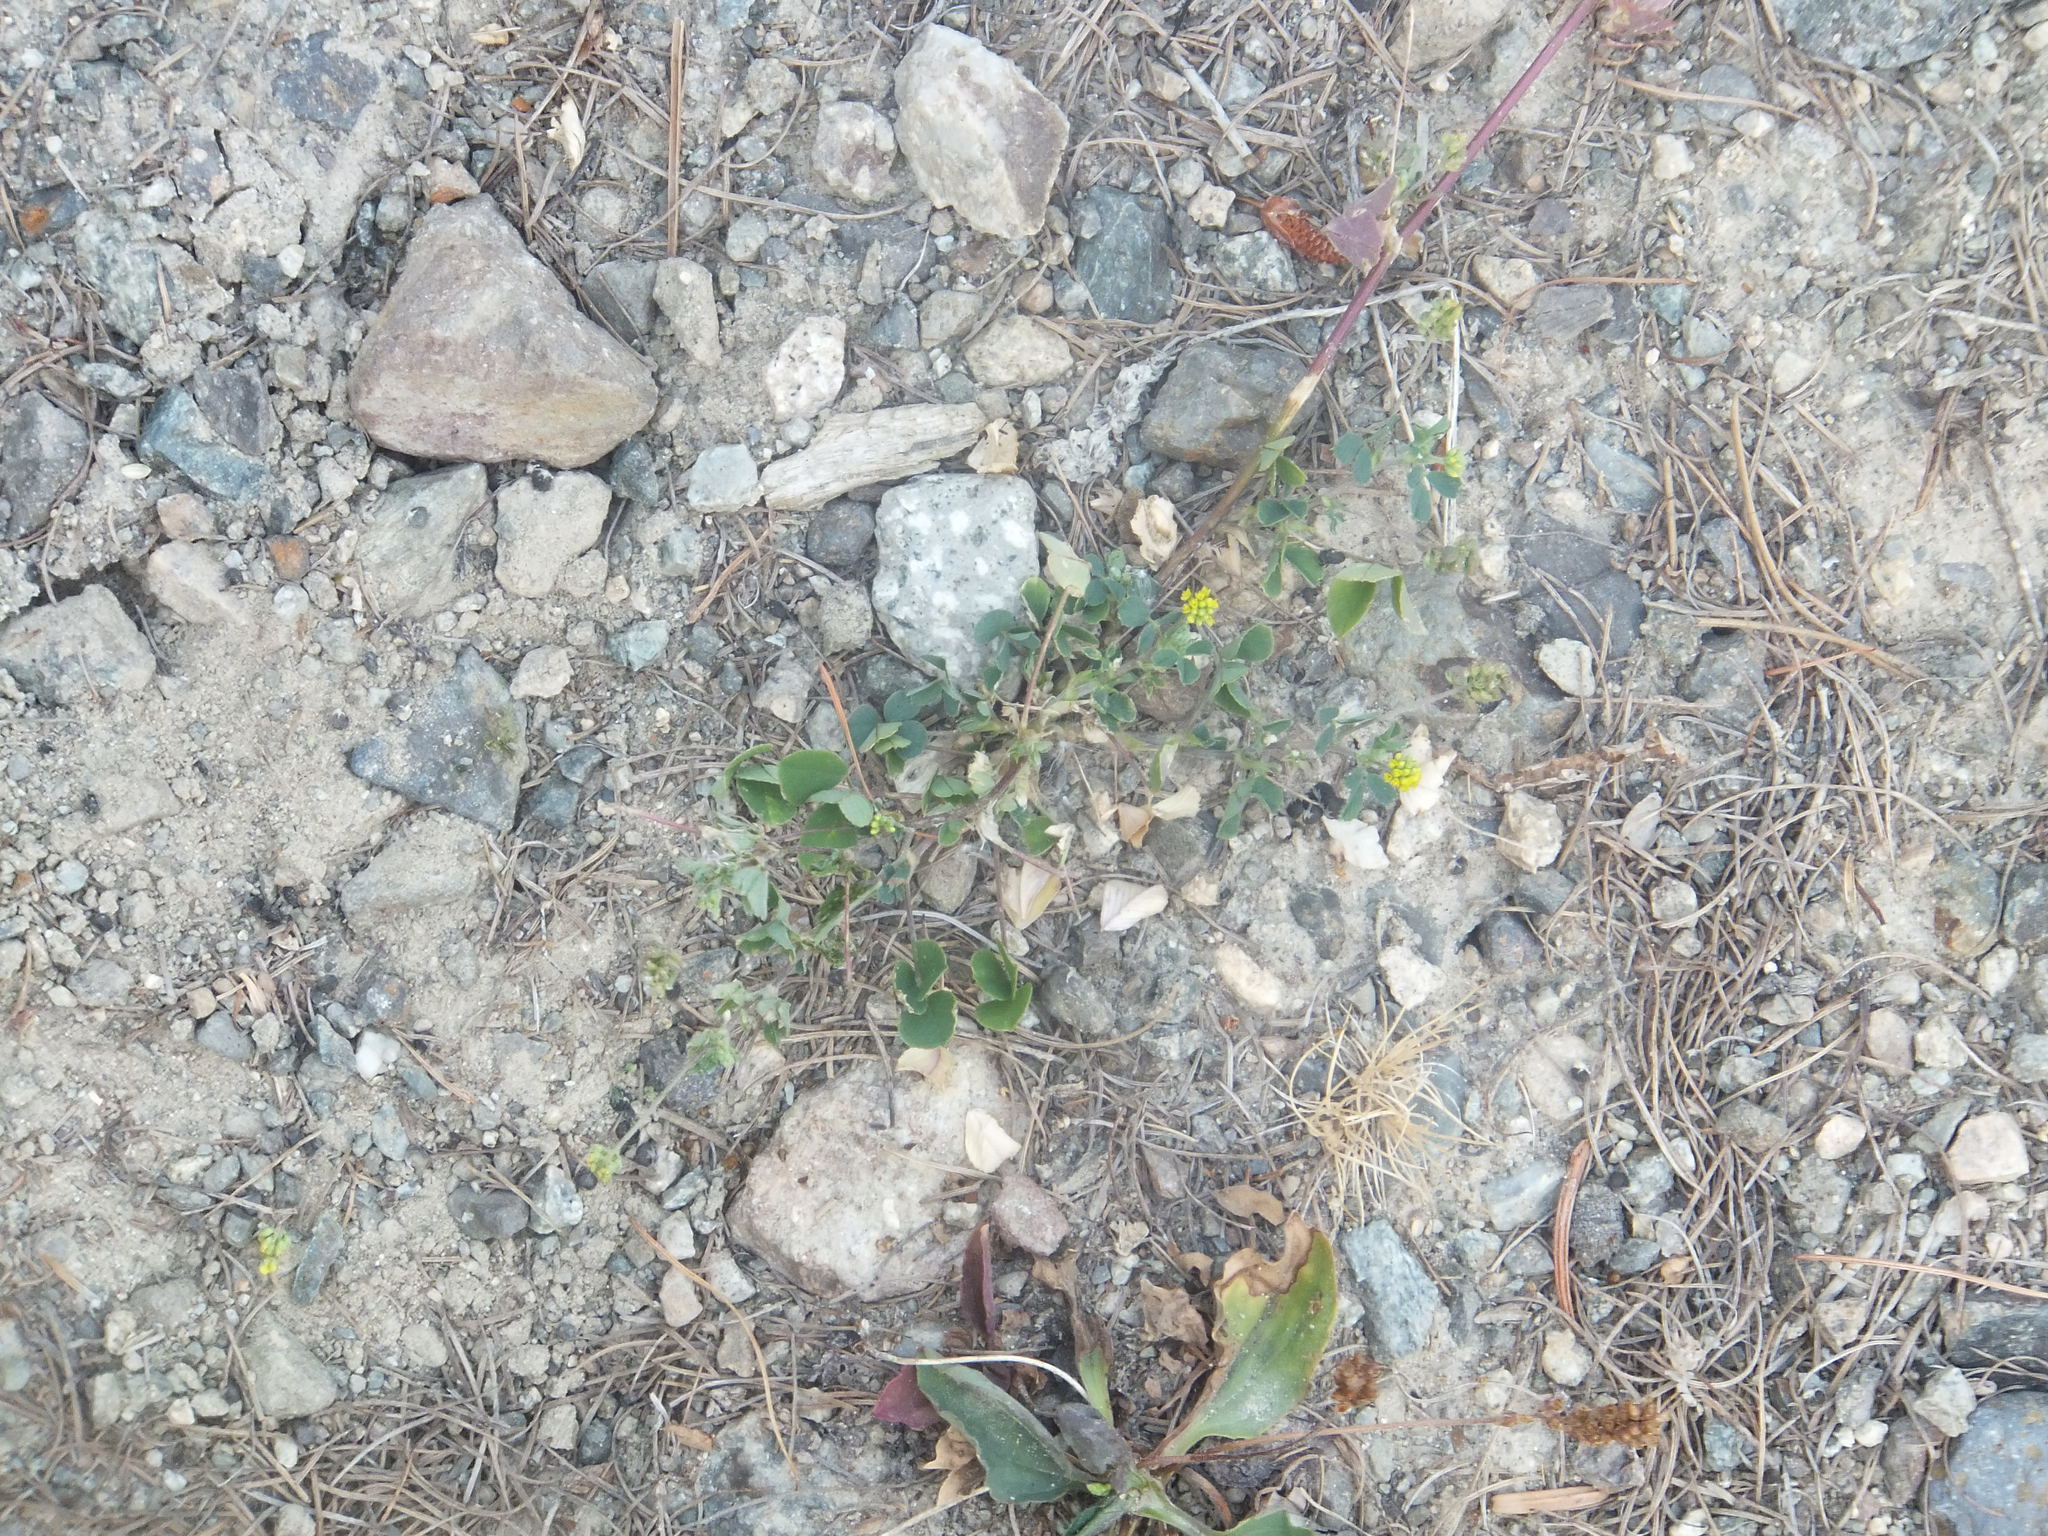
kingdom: Plantae
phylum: Tracheophyta
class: Magnoliopsida
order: Fabales
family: Fabaceae
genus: Medicago
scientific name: Medicago lupulina
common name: Black medick
